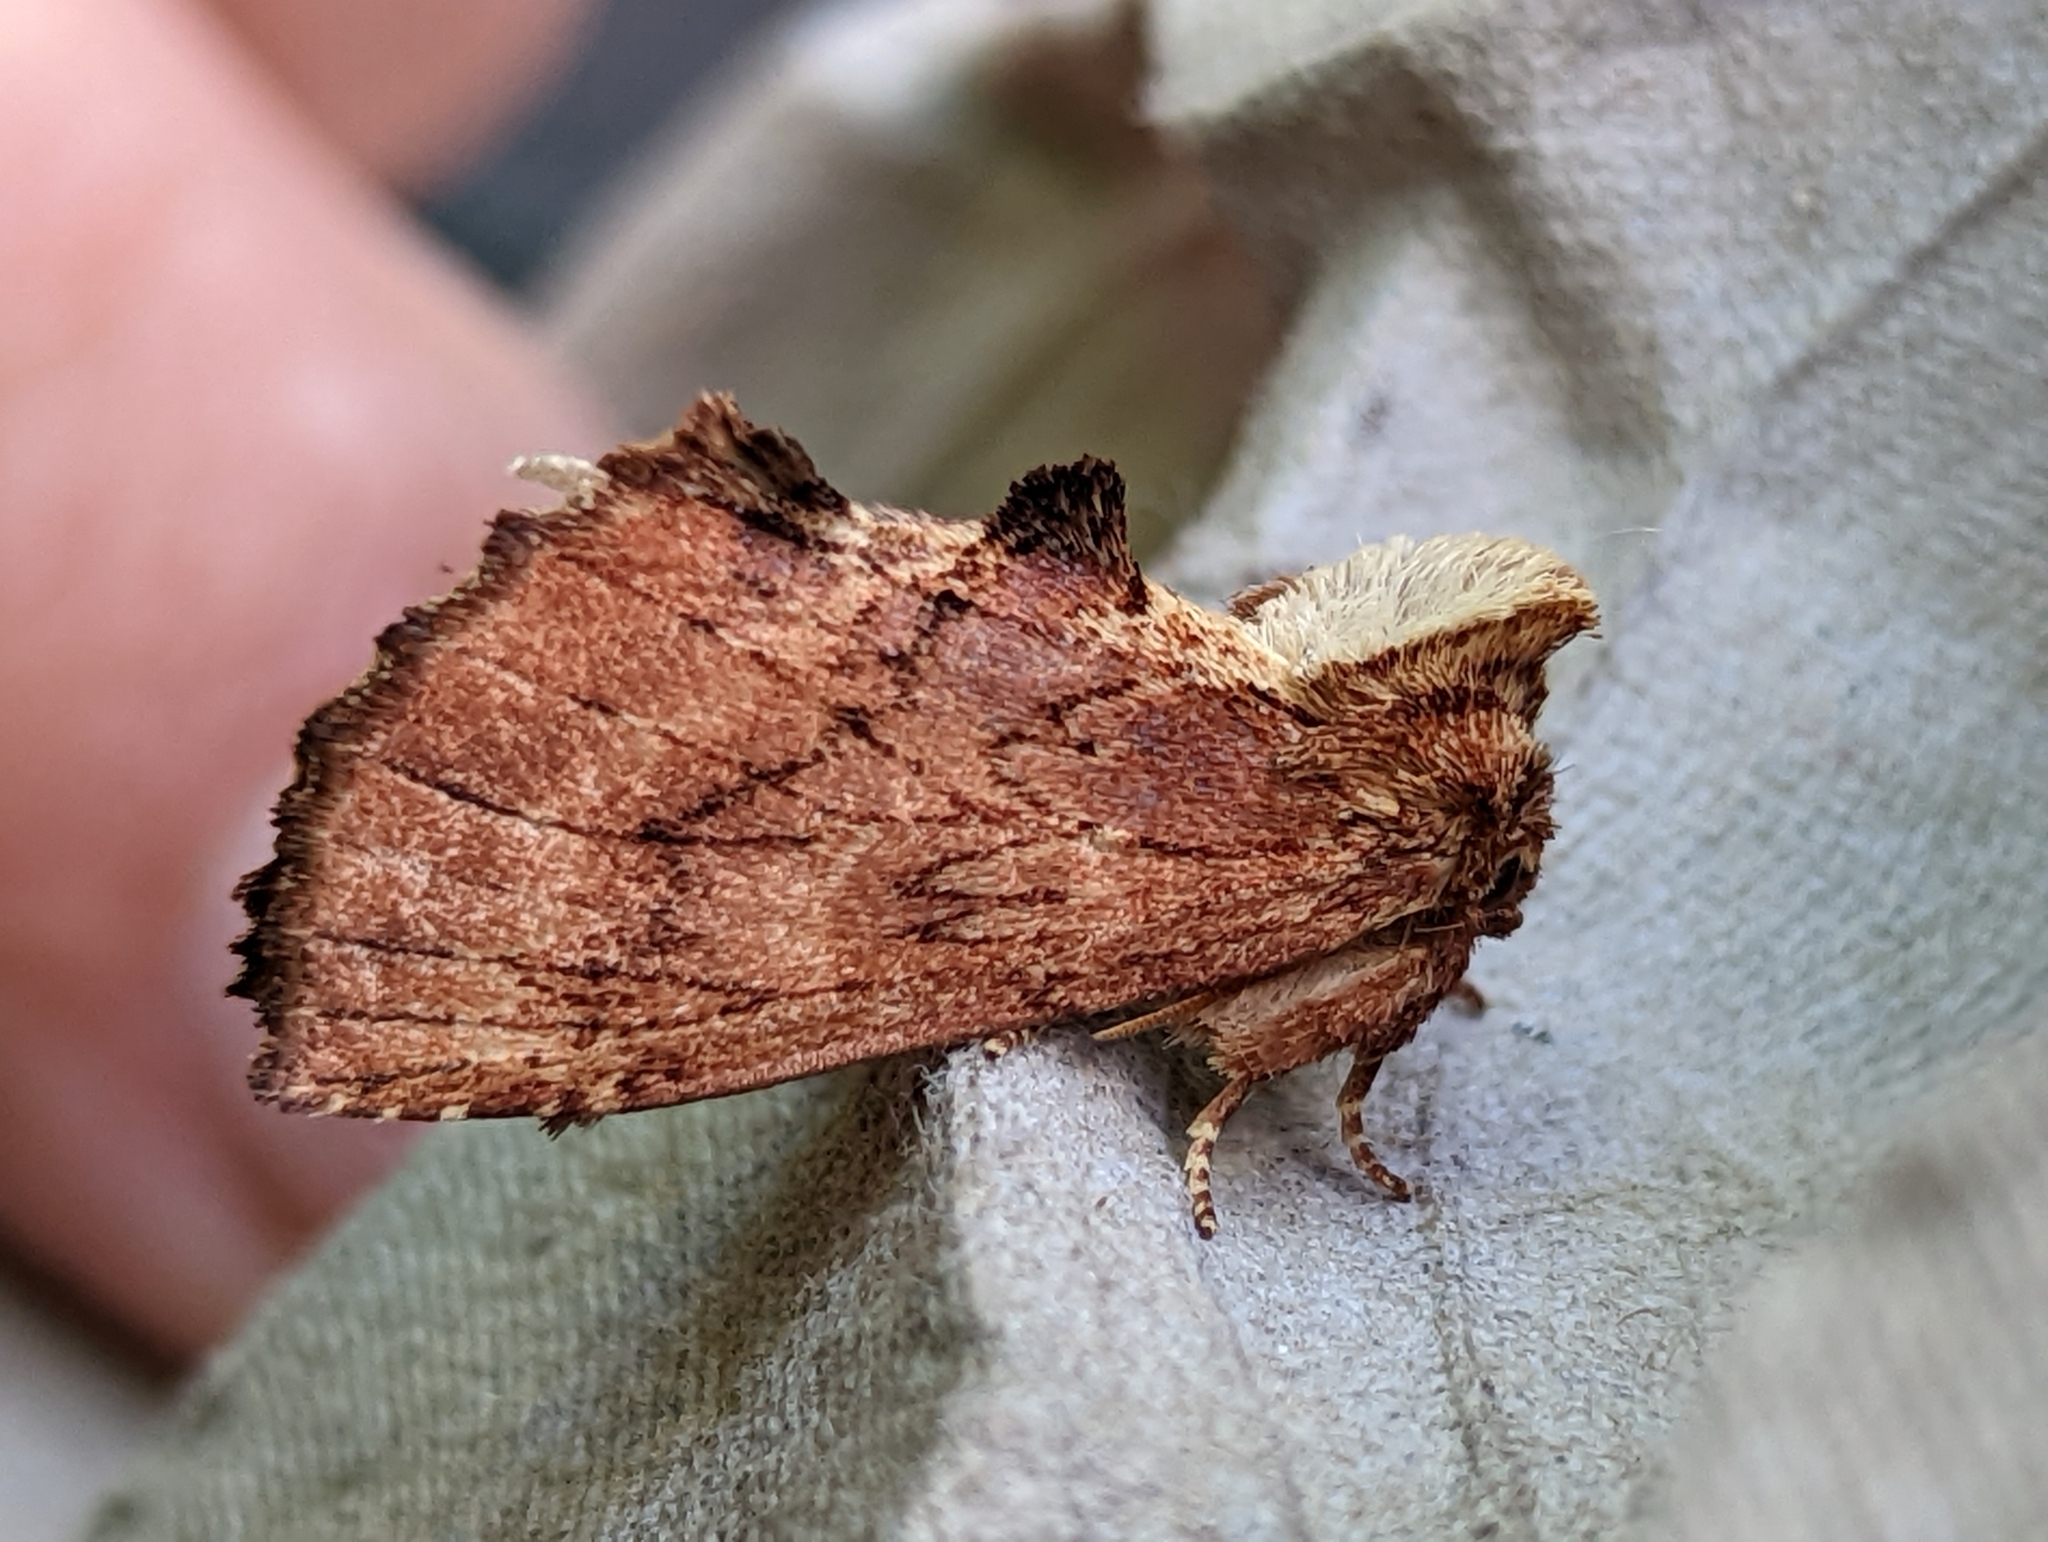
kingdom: Animalia
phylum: Arthropoda
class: Insecta
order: Lepidoptera
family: Notodontidae
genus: Ptilodon
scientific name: Ptilodon capucina
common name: Coxcomb prominent
